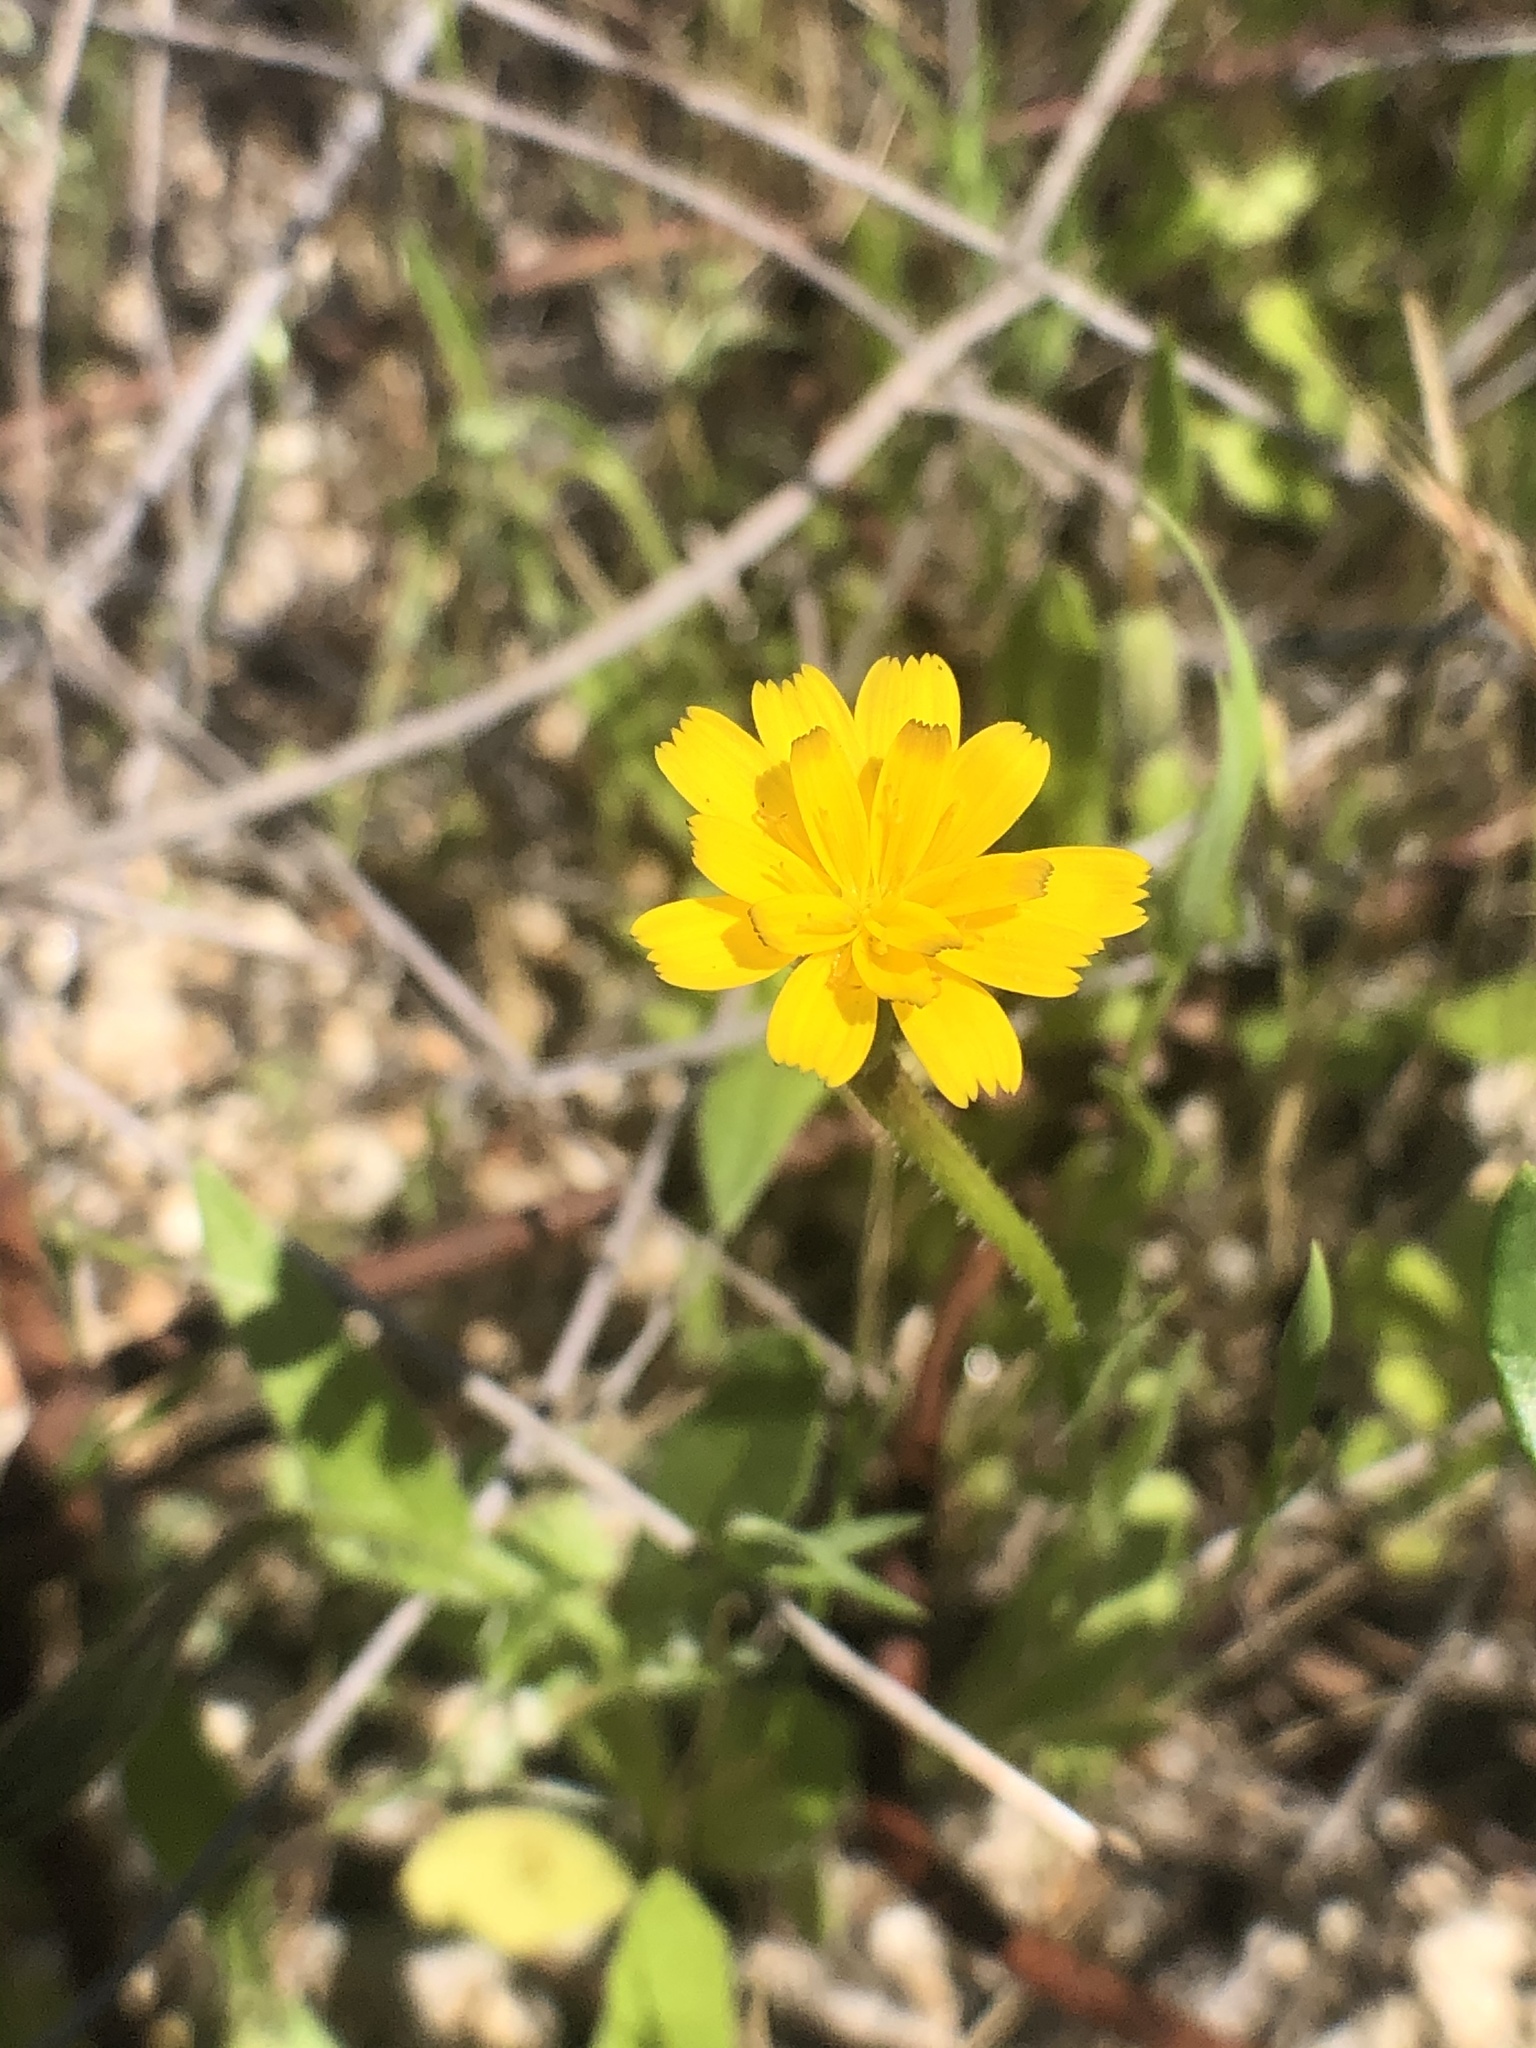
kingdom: Plantae
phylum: Tracheophyta
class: Magnoliopsida
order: Asterales
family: Asteraceae
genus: Hedypnois
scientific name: Hedypnois rhagadioloides
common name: Cretan weed
